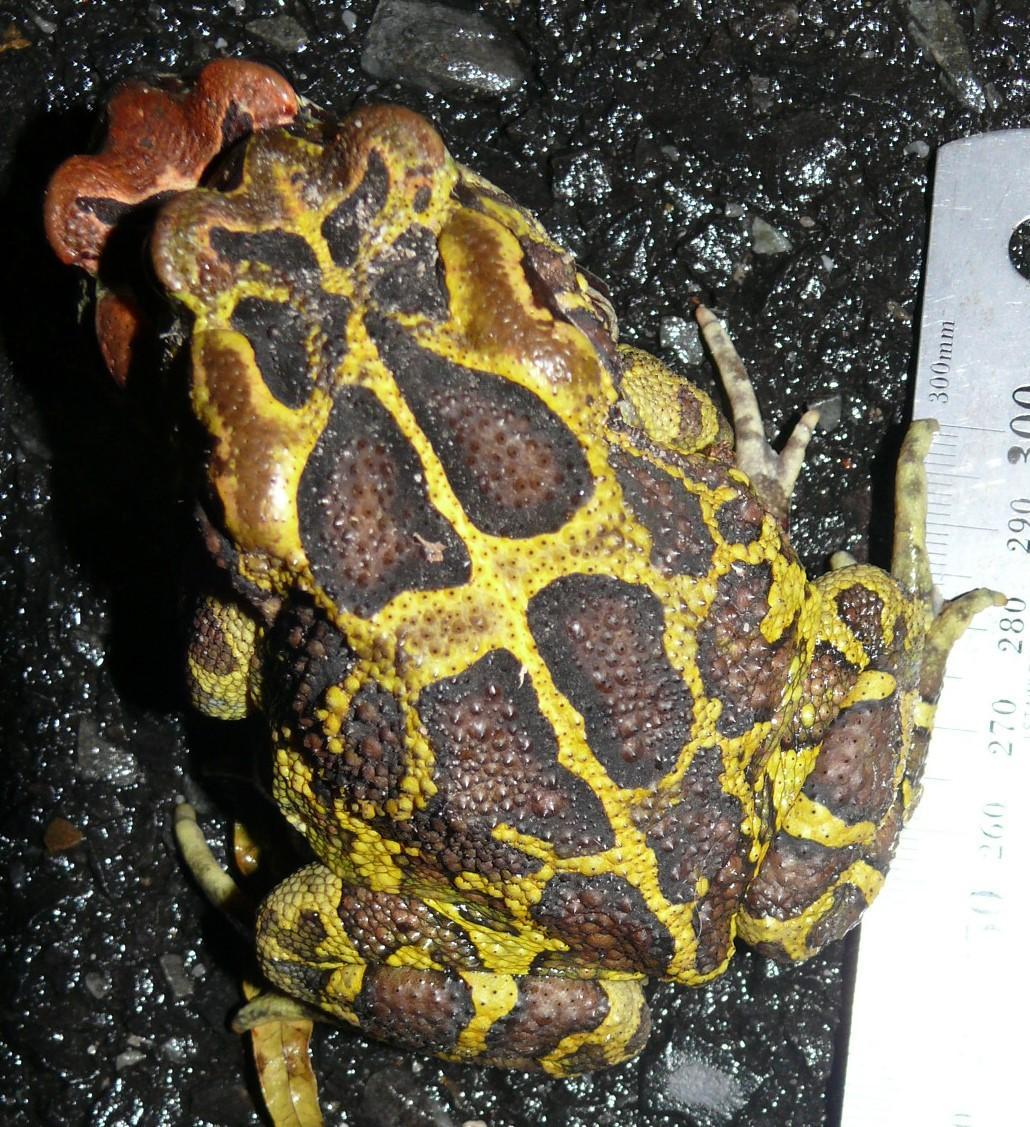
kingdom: Animalia
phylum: Chordata
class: Amphibia
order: Anura
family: Bufonidae
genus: Sclerophrys
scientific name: Sclerophrys pantherina
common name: Panther toad
